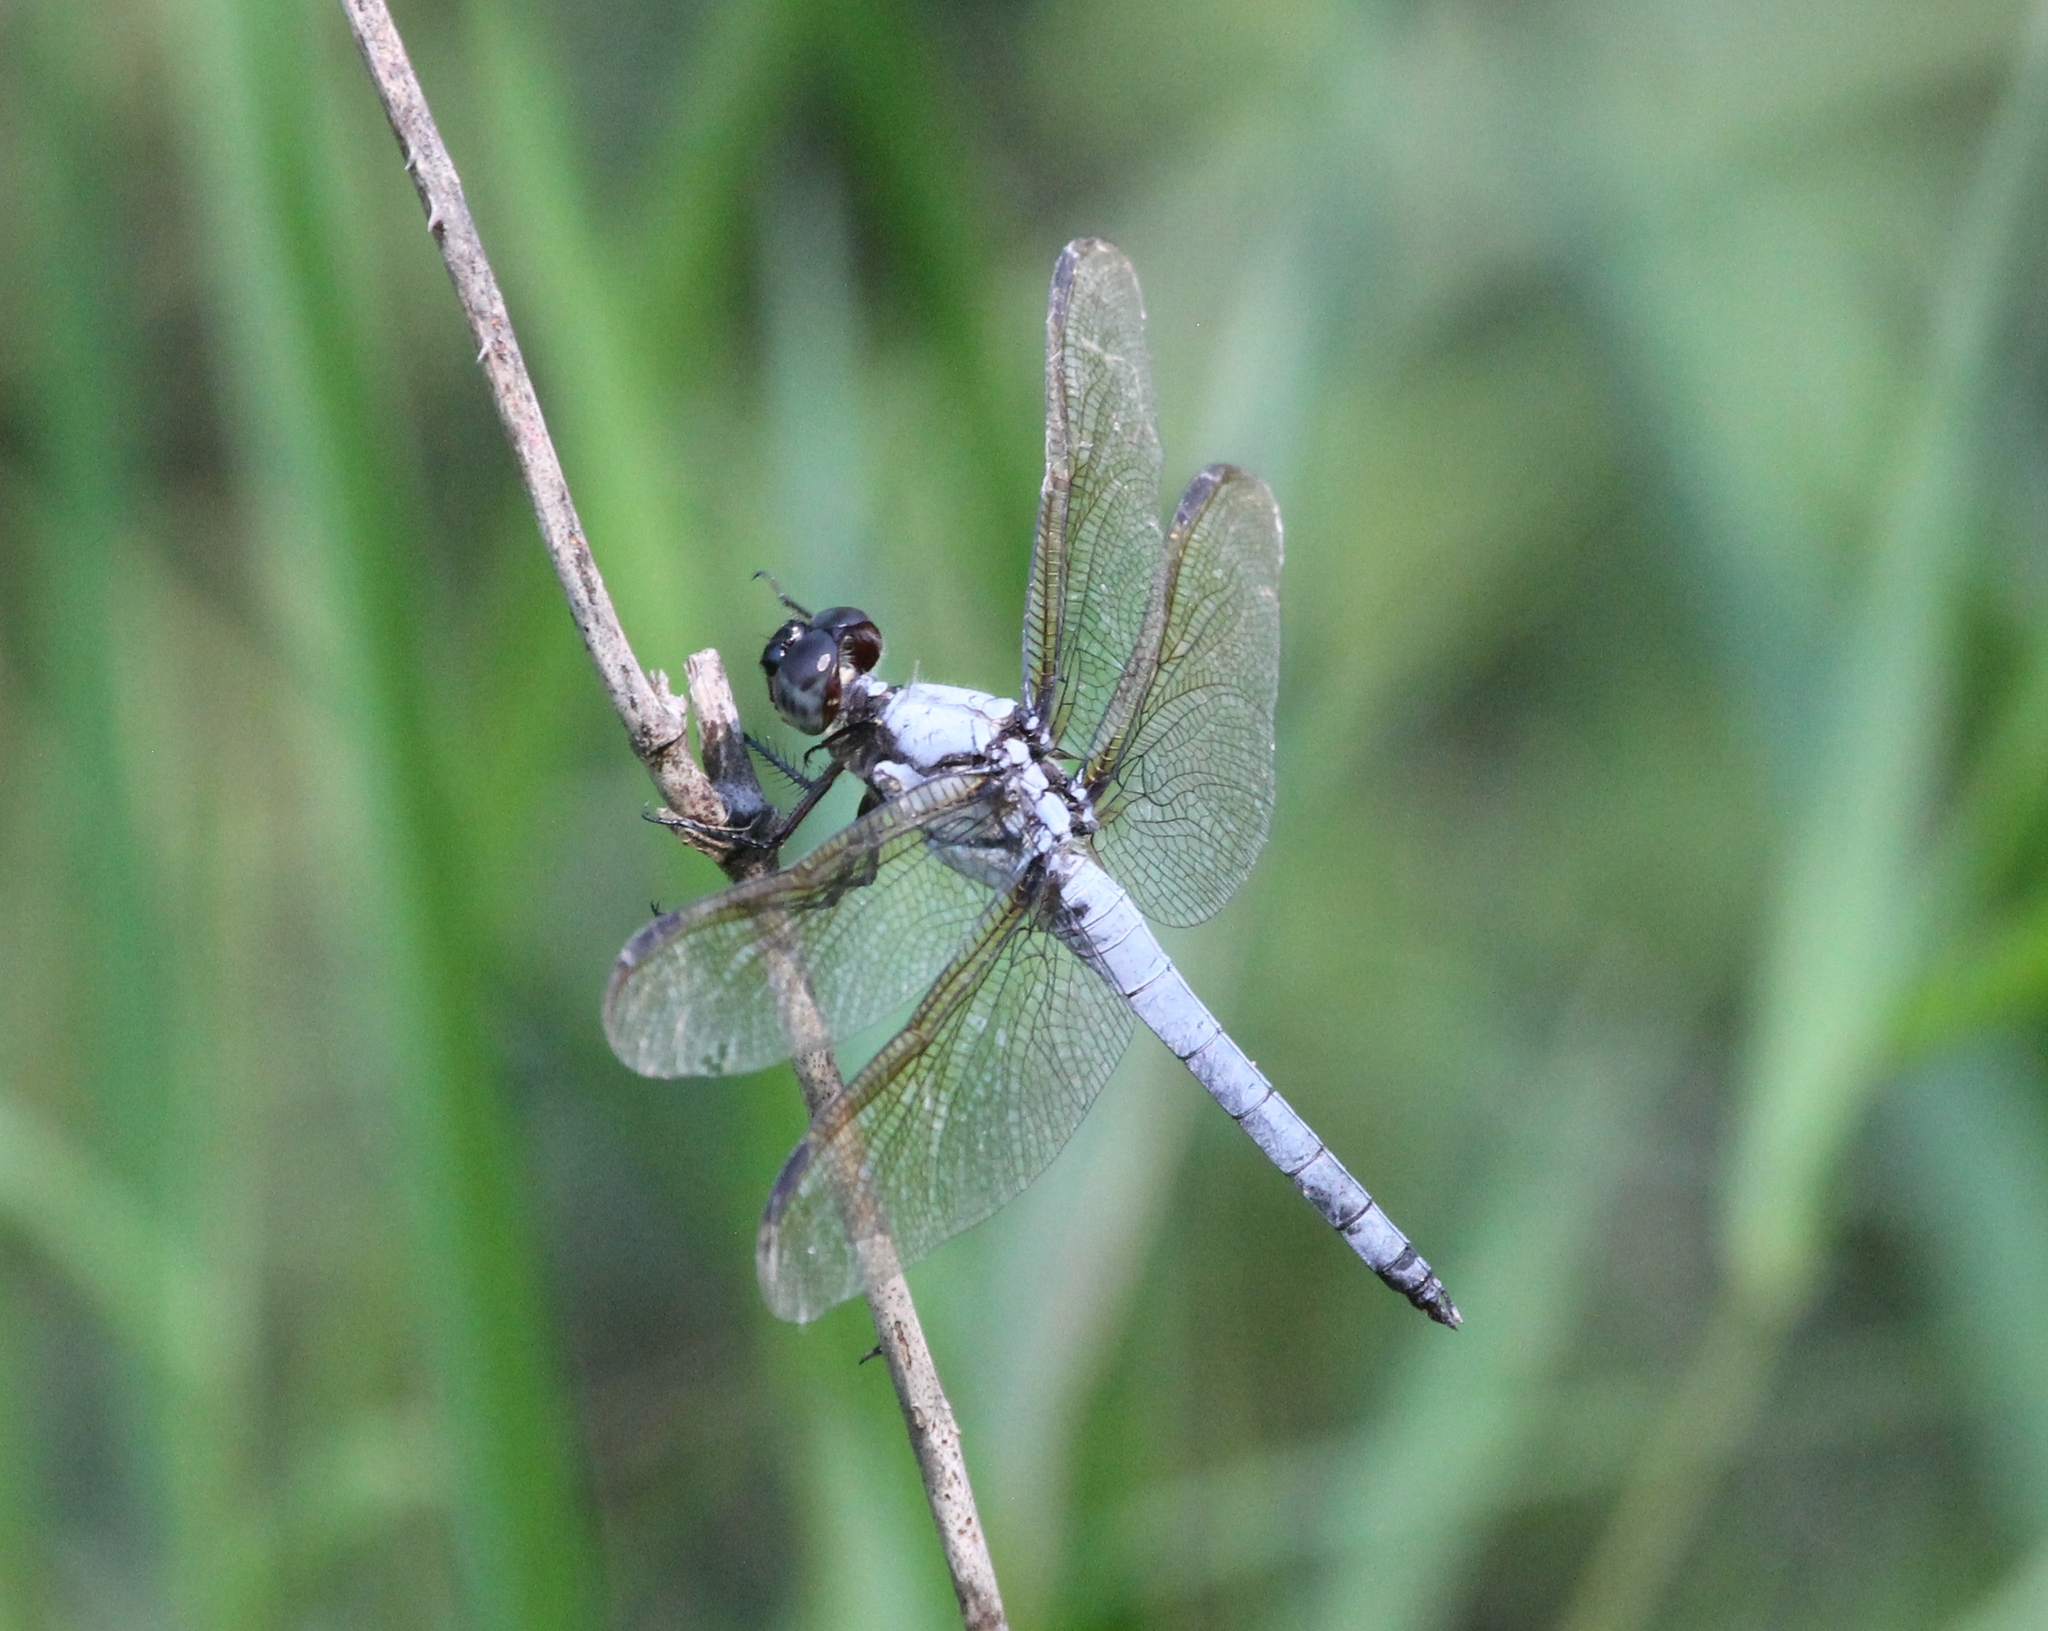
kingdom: Animalia
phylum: Arthropoda
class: Insecta
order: Odonata
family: Libellulidae
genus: Libellula
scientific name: Libellula flavida
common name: Yellow-sided skimmer
